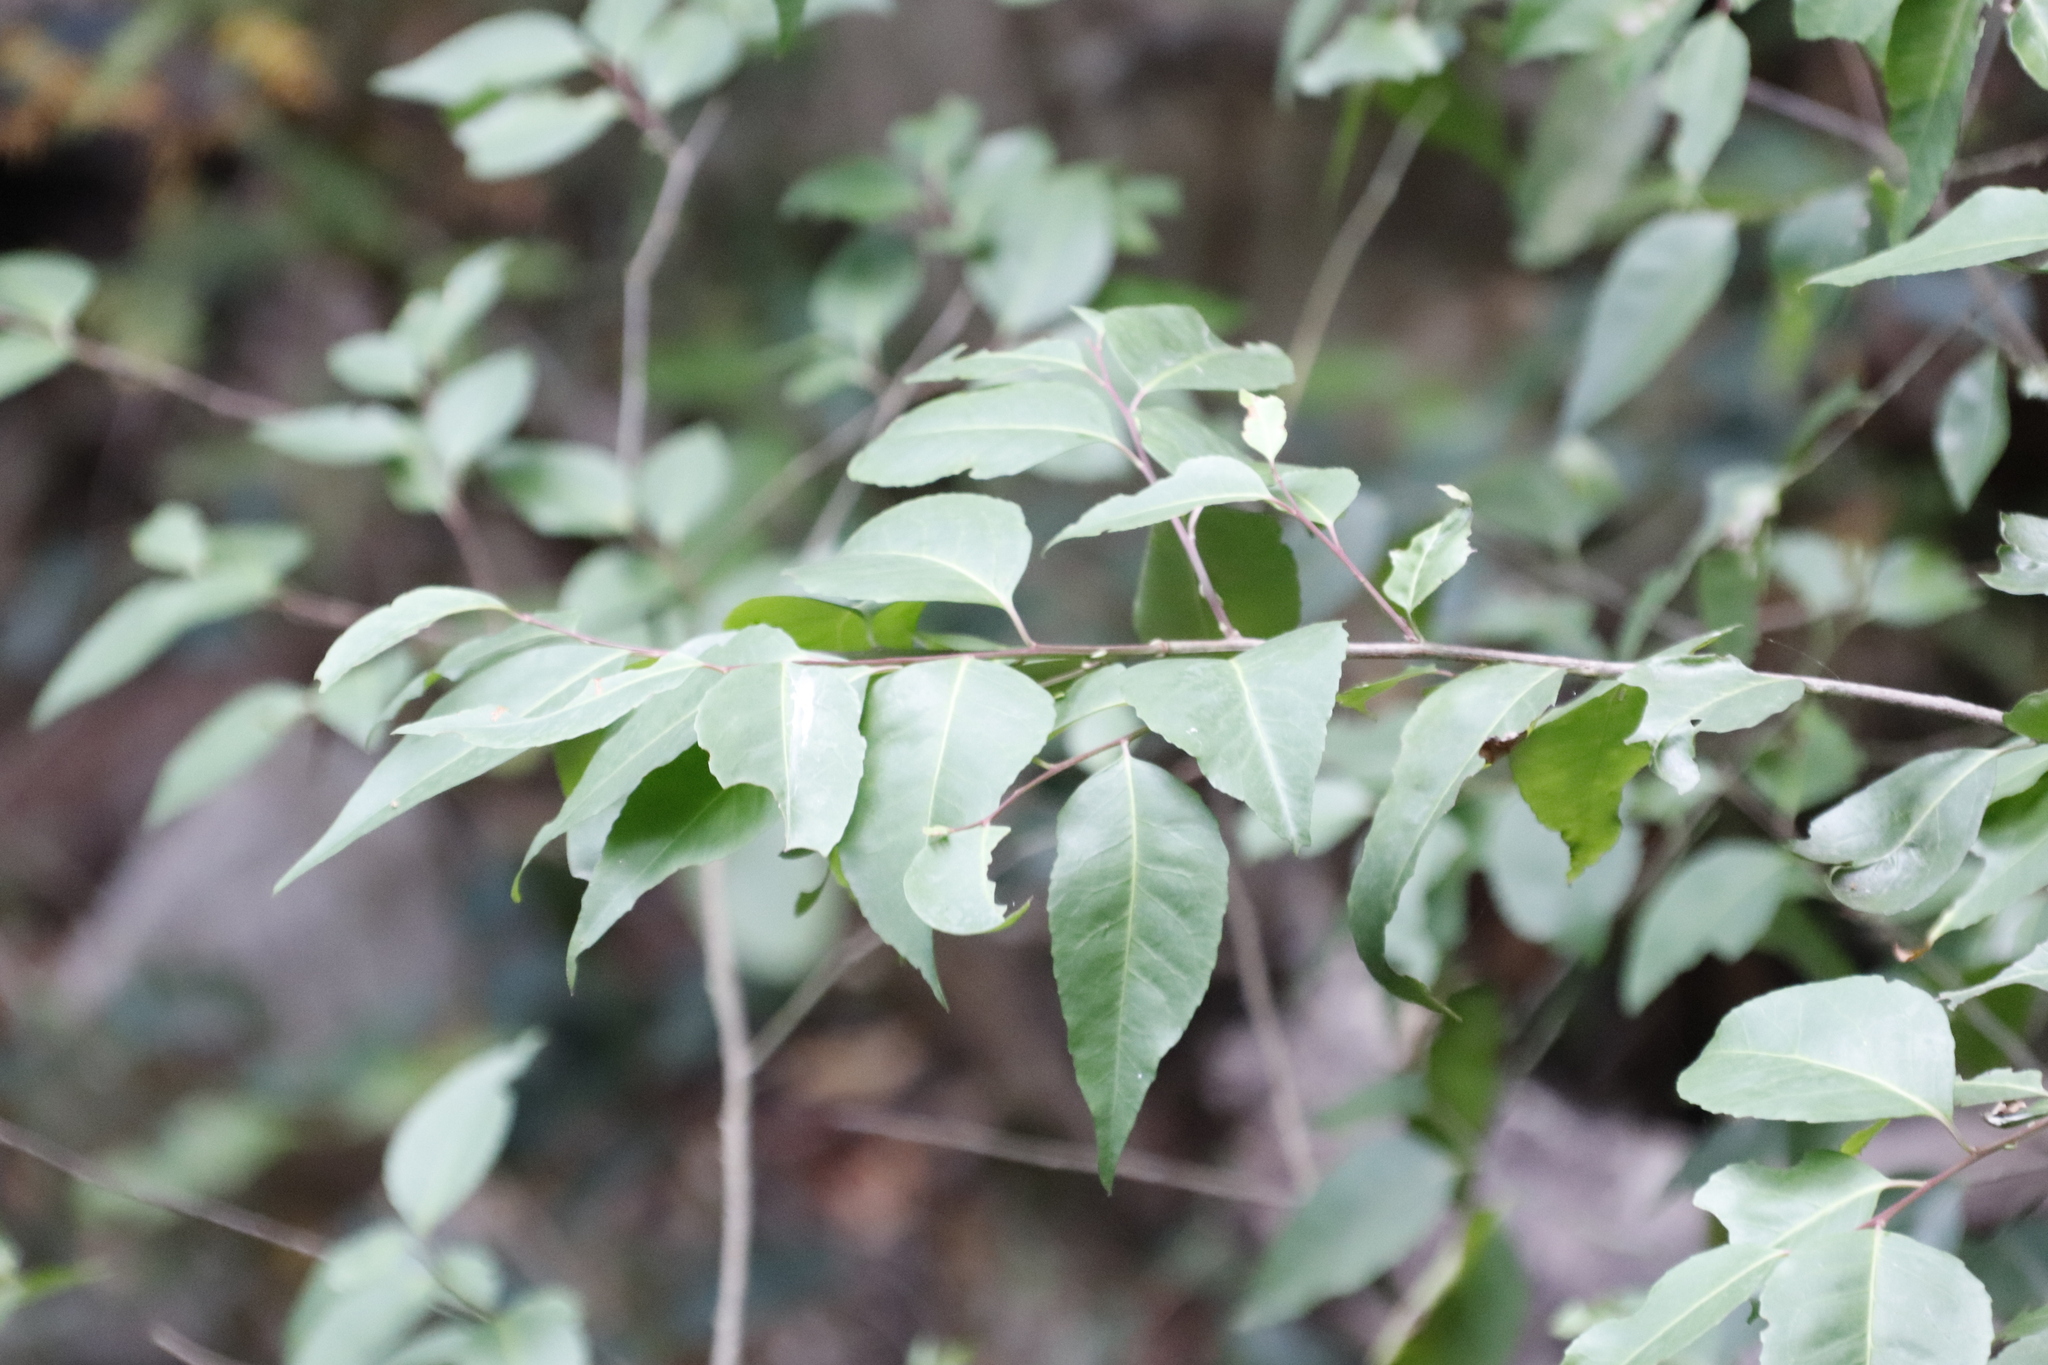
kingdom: Plantae
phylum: Tracheophyta
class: Magnoliopsida
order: Celastrales
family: Celastraceae
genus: Gymnosporia
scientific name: Gymnosporia acuminata
